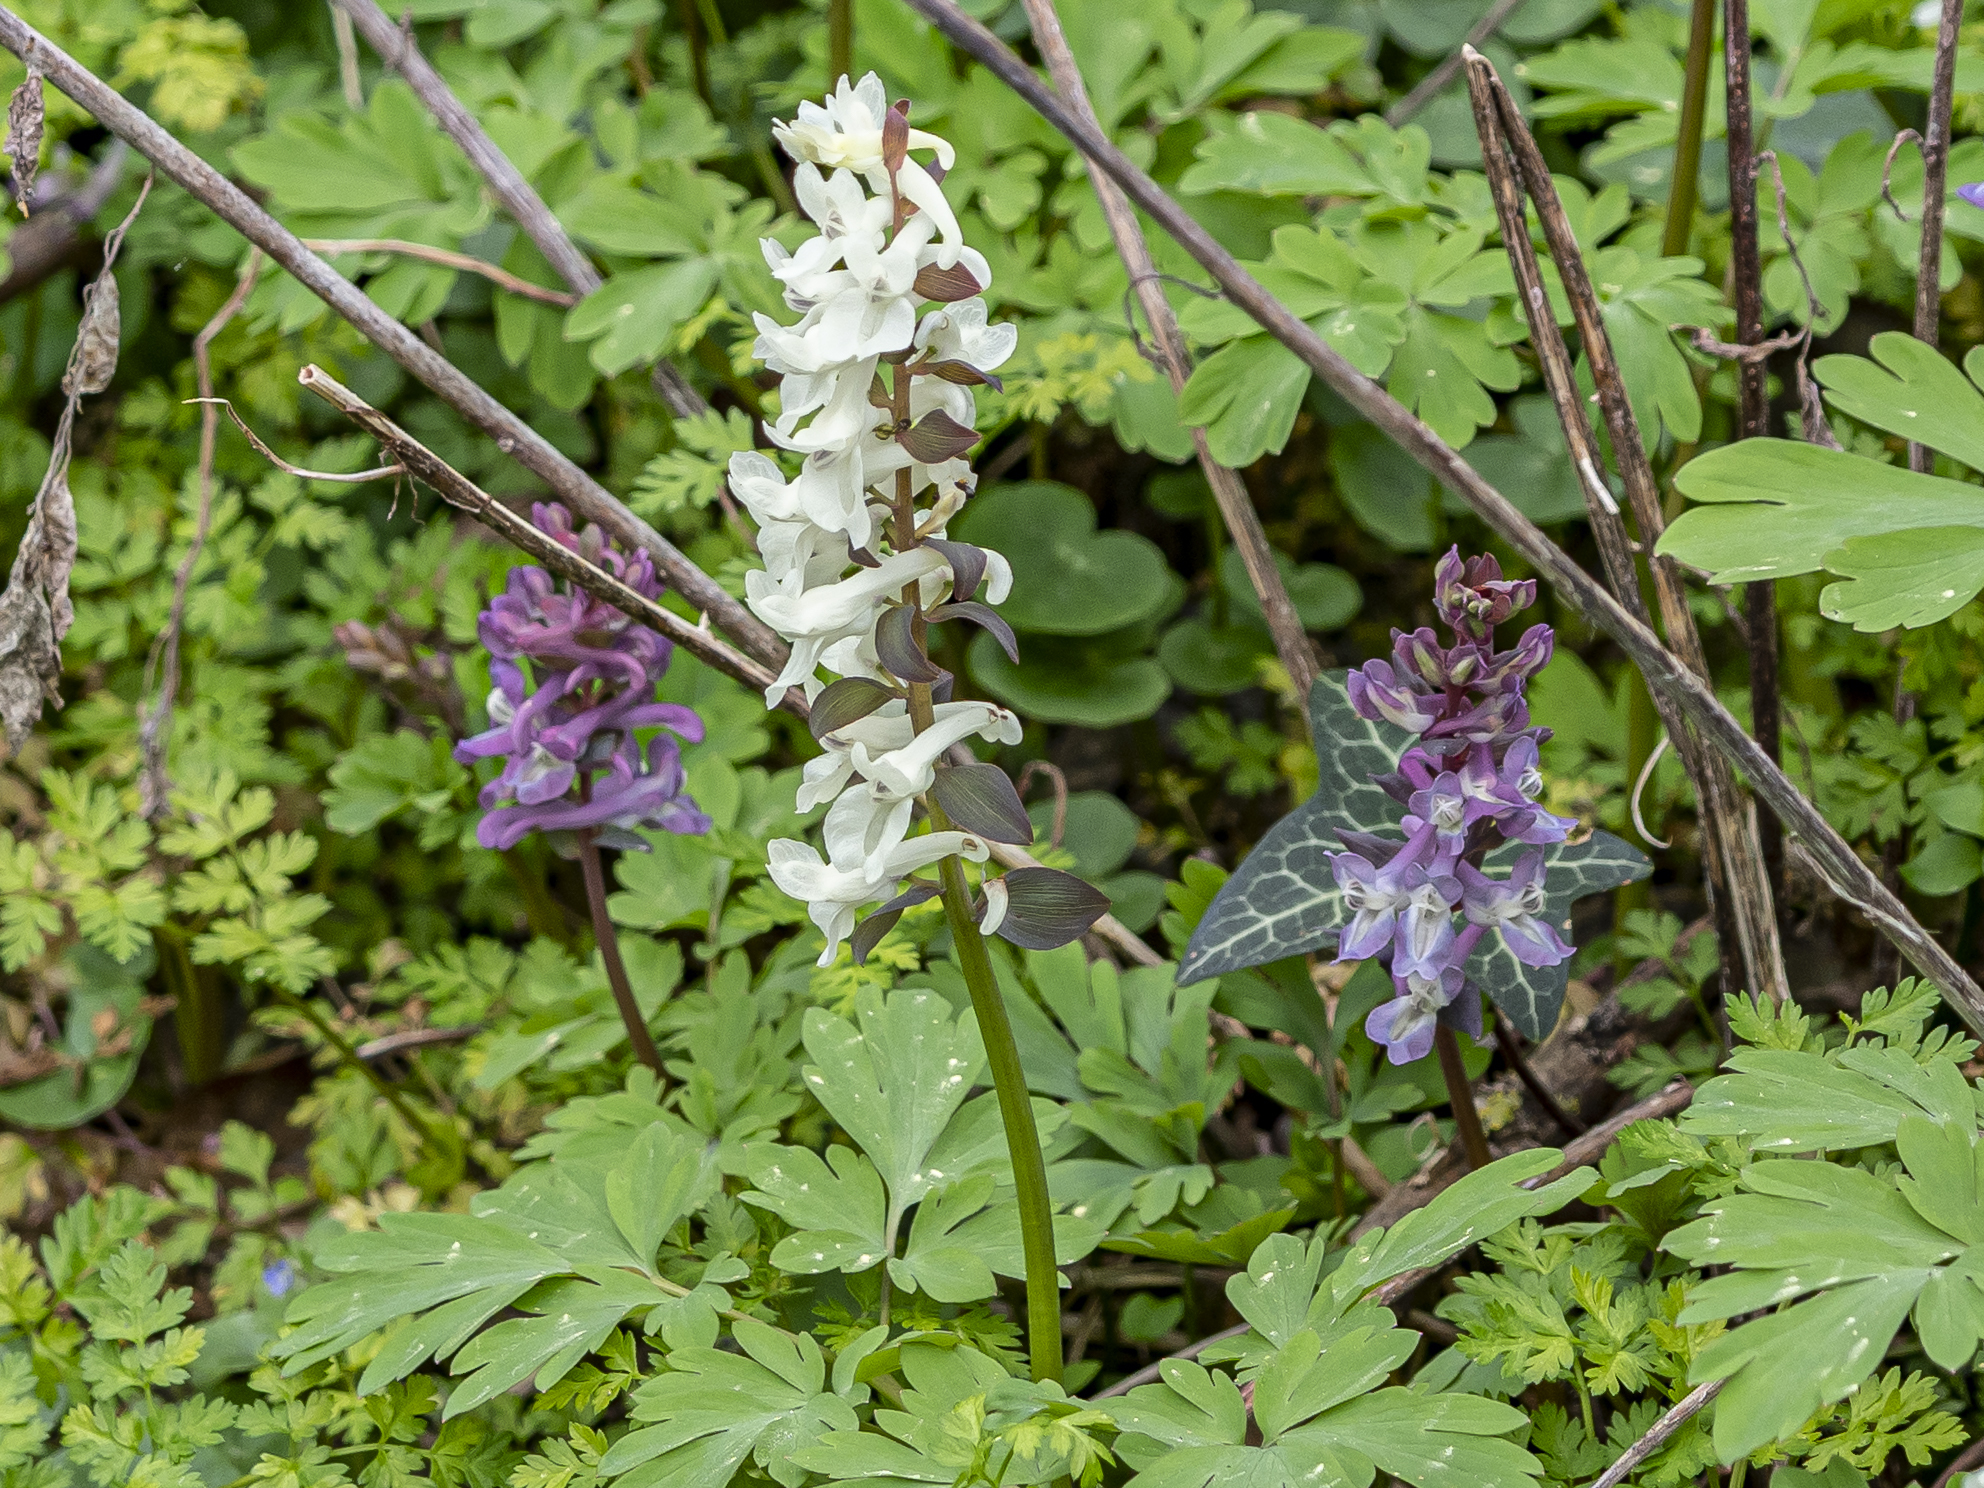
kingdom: Plantae
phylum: Tracheophyta
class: Magnoliopsida
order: Ranunculales
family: Papaveraceae
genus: Corydalis
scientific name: Corydalis cava
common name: Hollowroot
